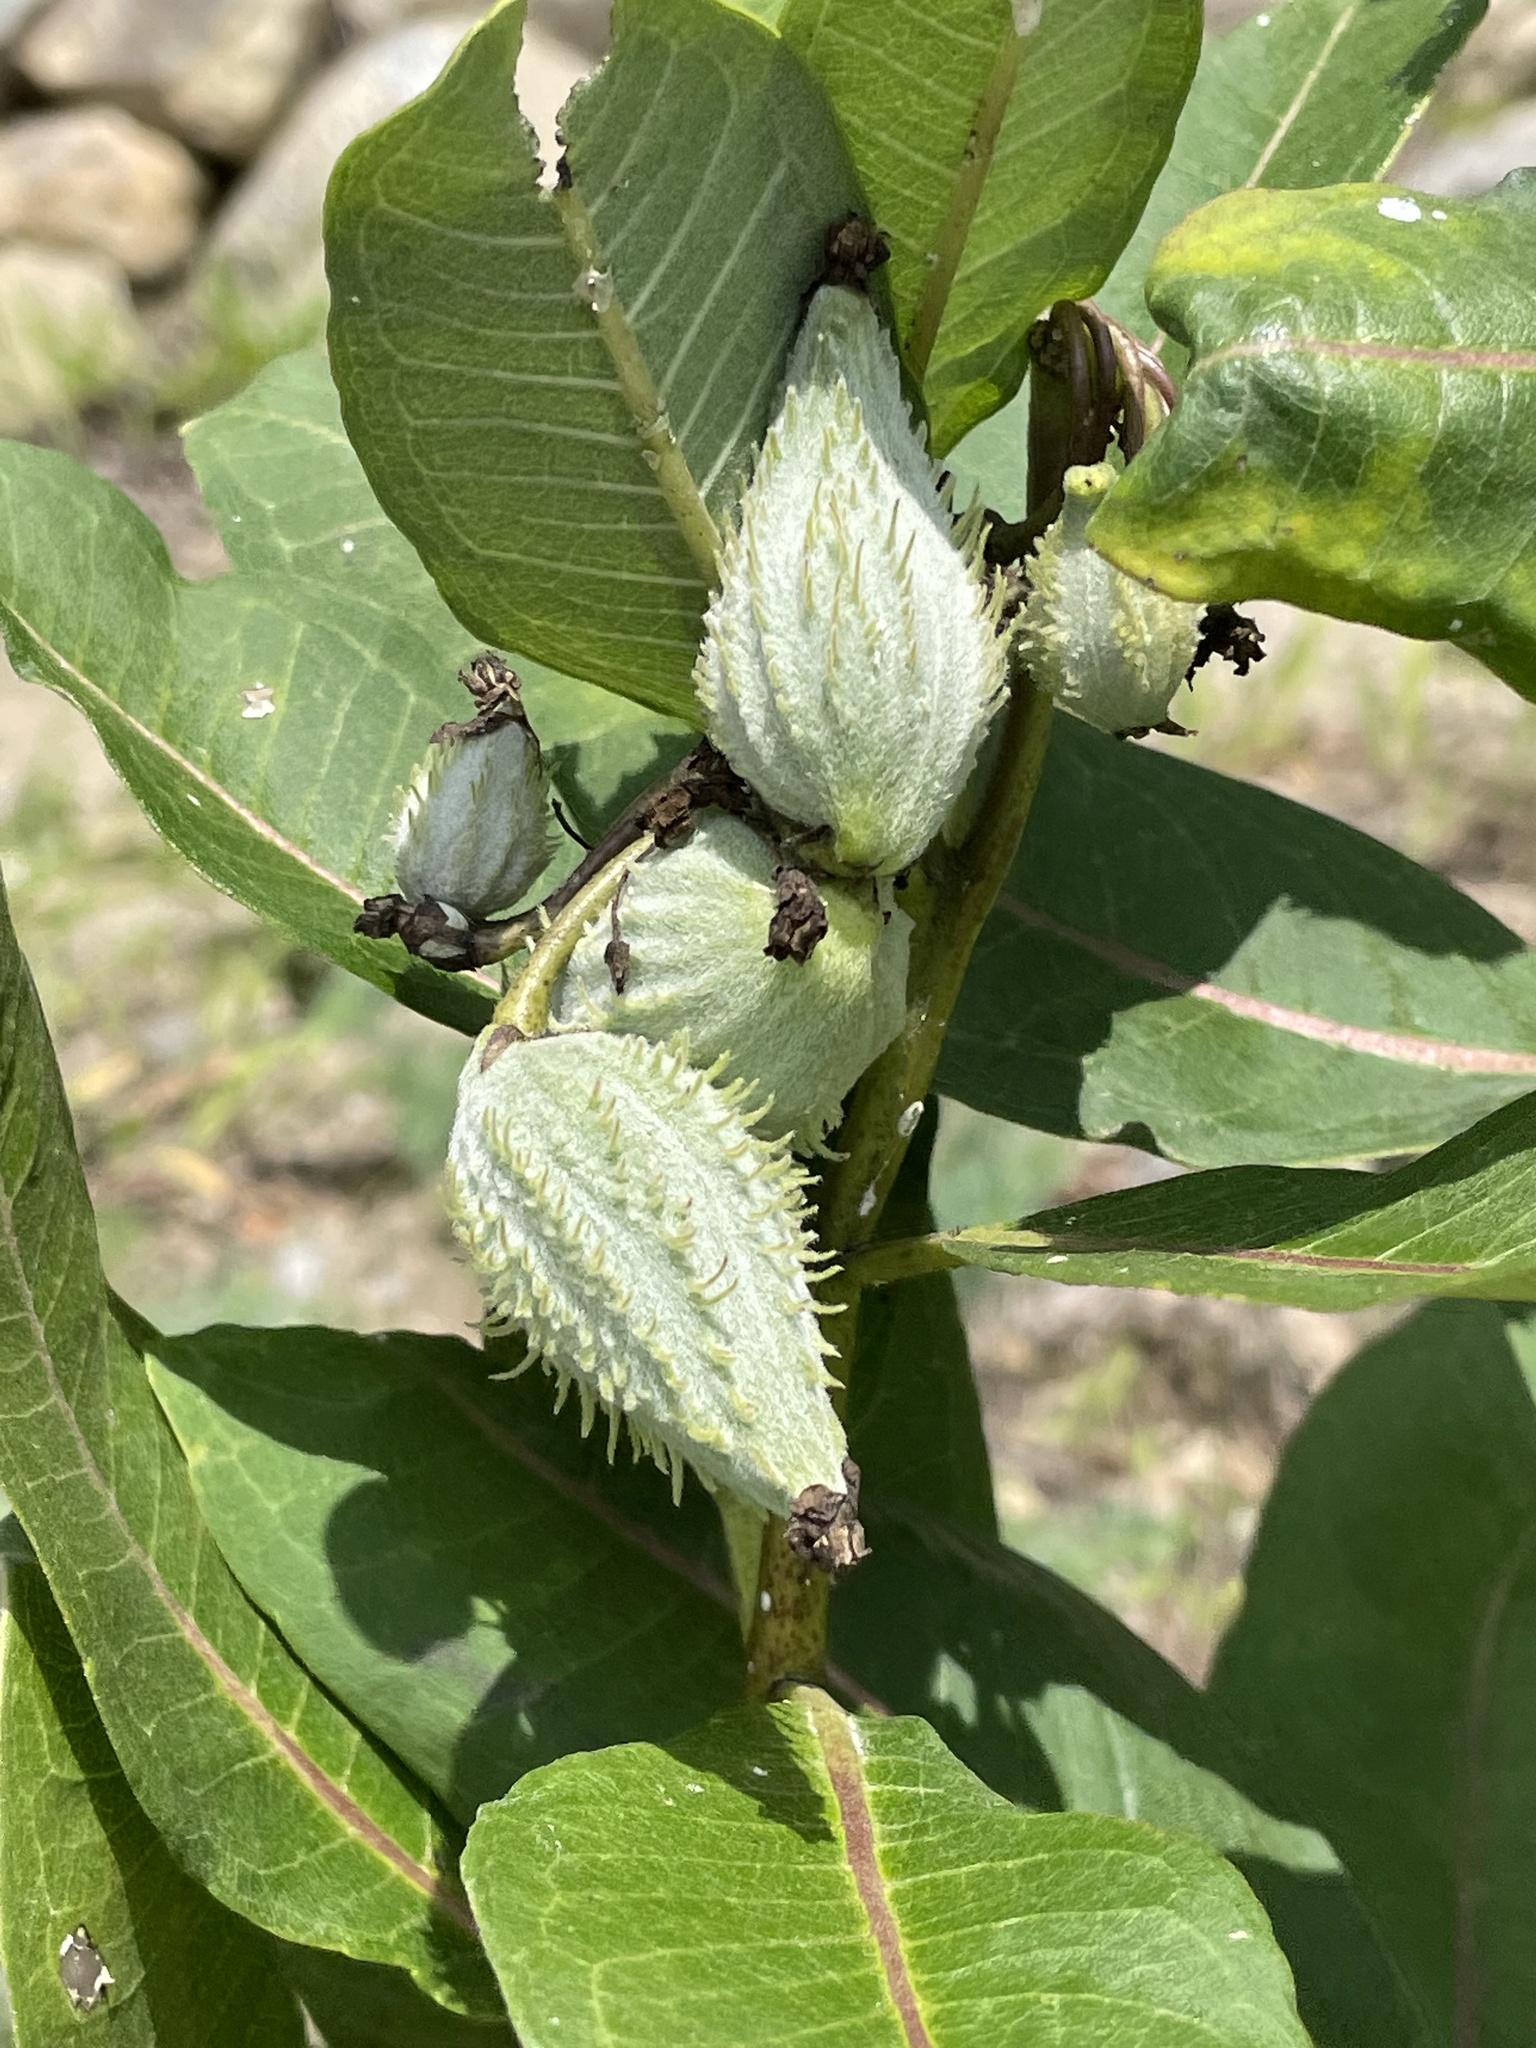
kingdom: Plantae
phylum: Tracheophyta
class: Magnoliopsida
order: Gentianales
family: Apocynaceae
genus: Asclepias
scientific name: Asclepias syriaca
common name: Common milkweed
